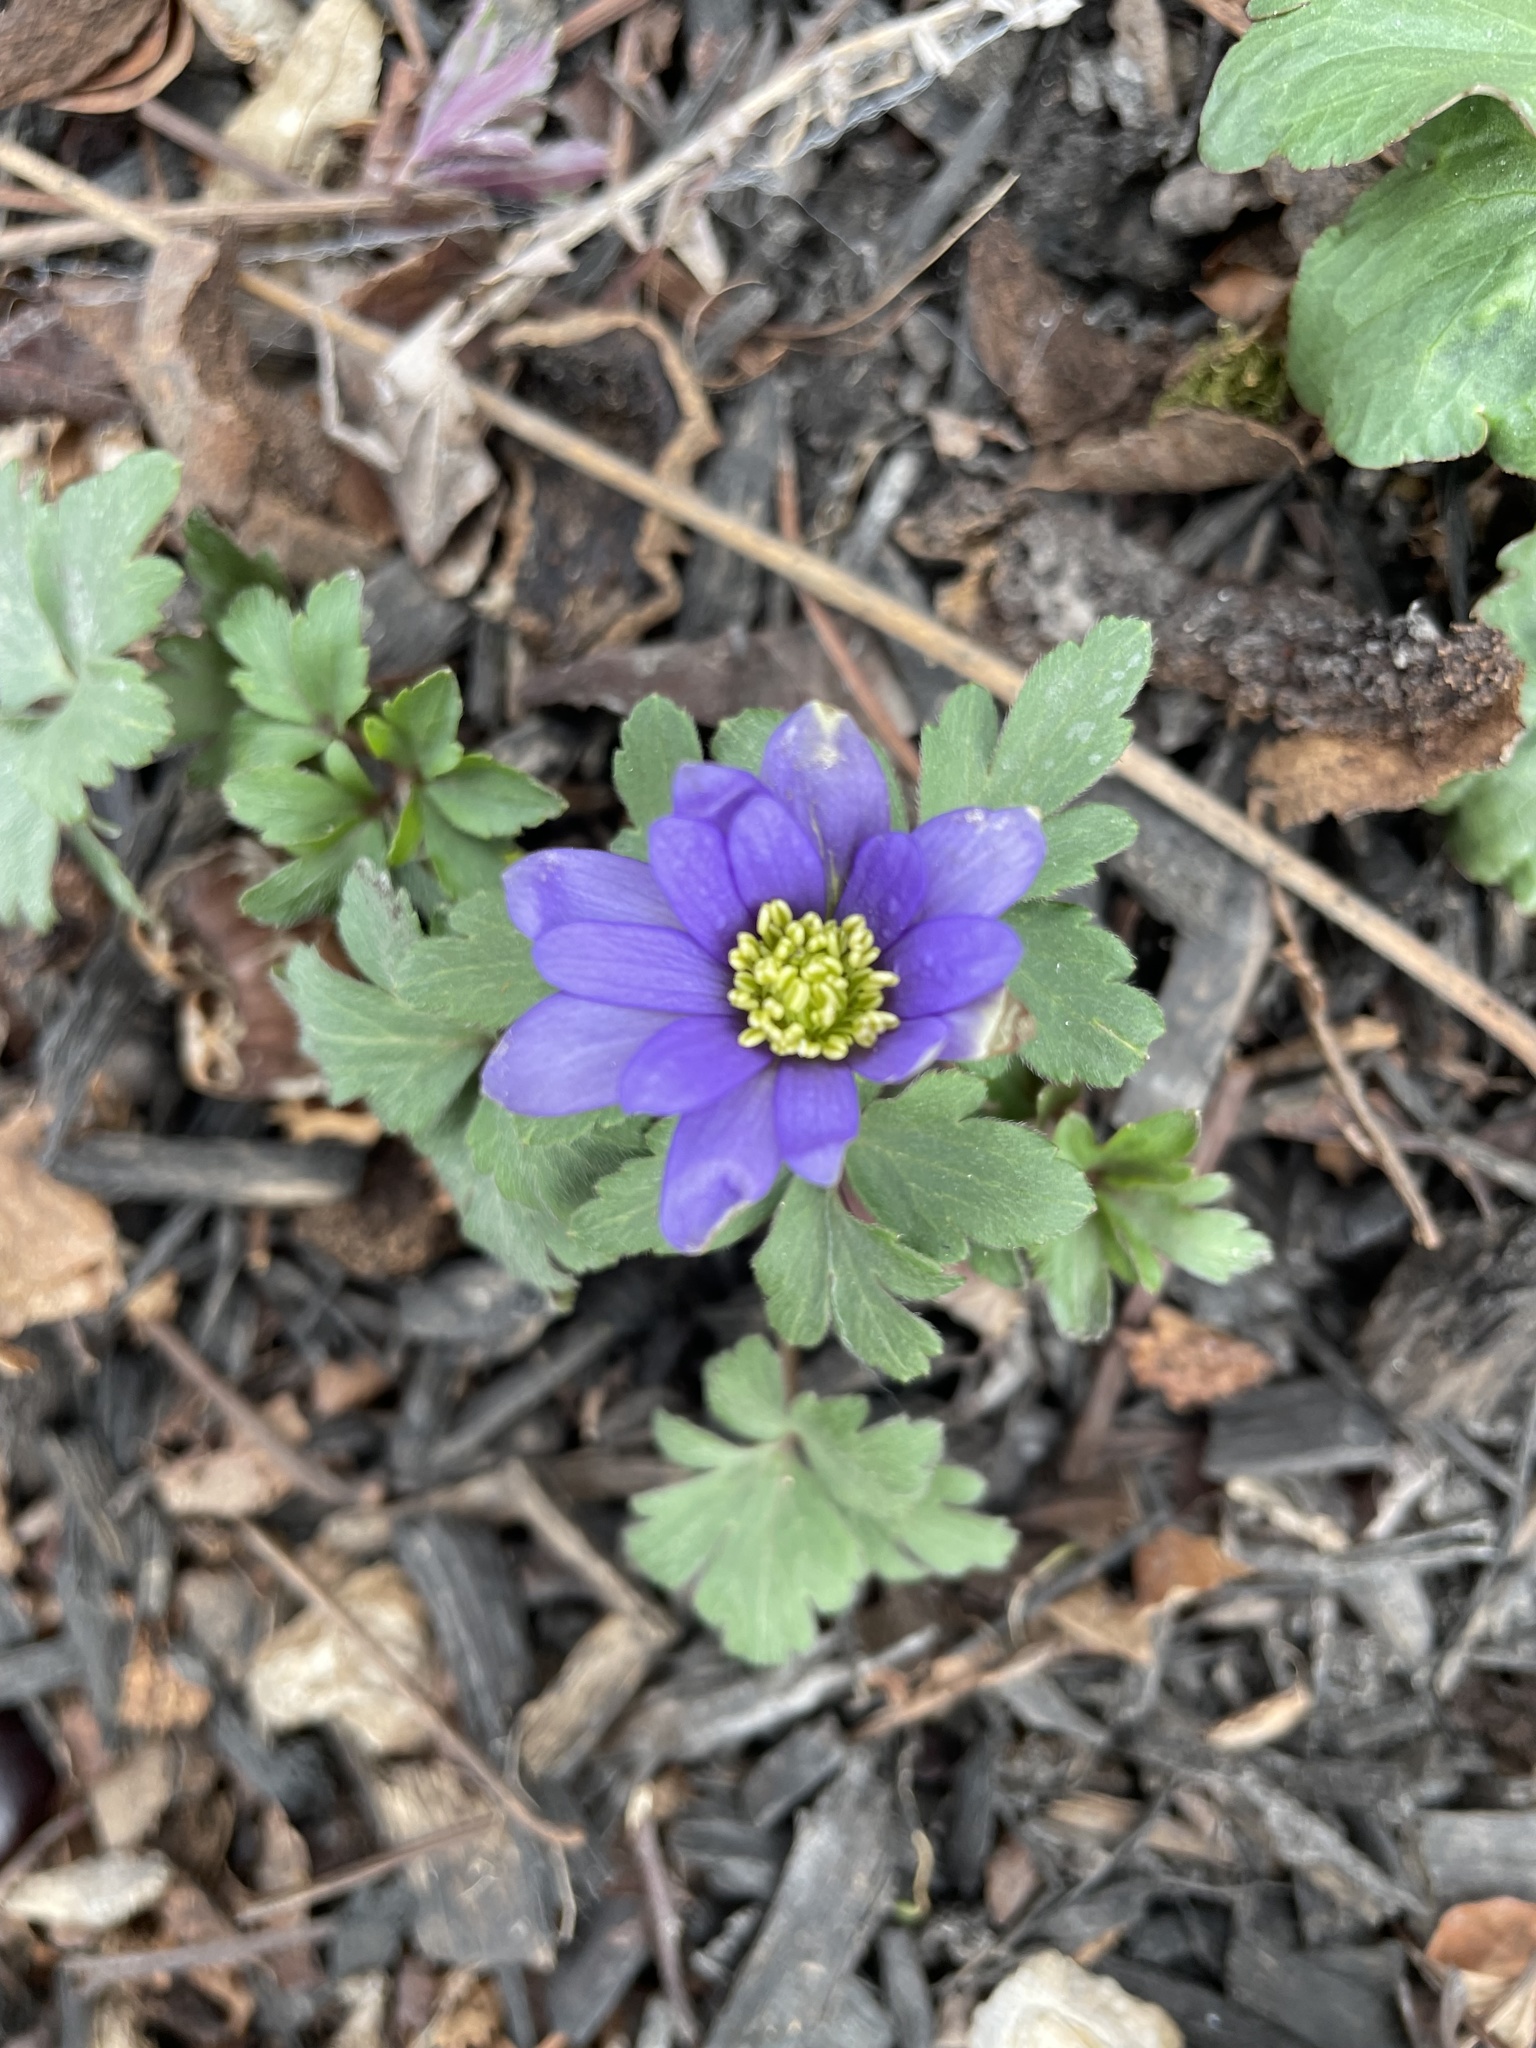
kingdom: Plantae
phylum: Tracheophyta
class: Magnoliopsida
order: Ranunculales
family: Ranunculaceae
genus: Anemone
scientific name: Anemone blanda
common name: Balkan anemone
